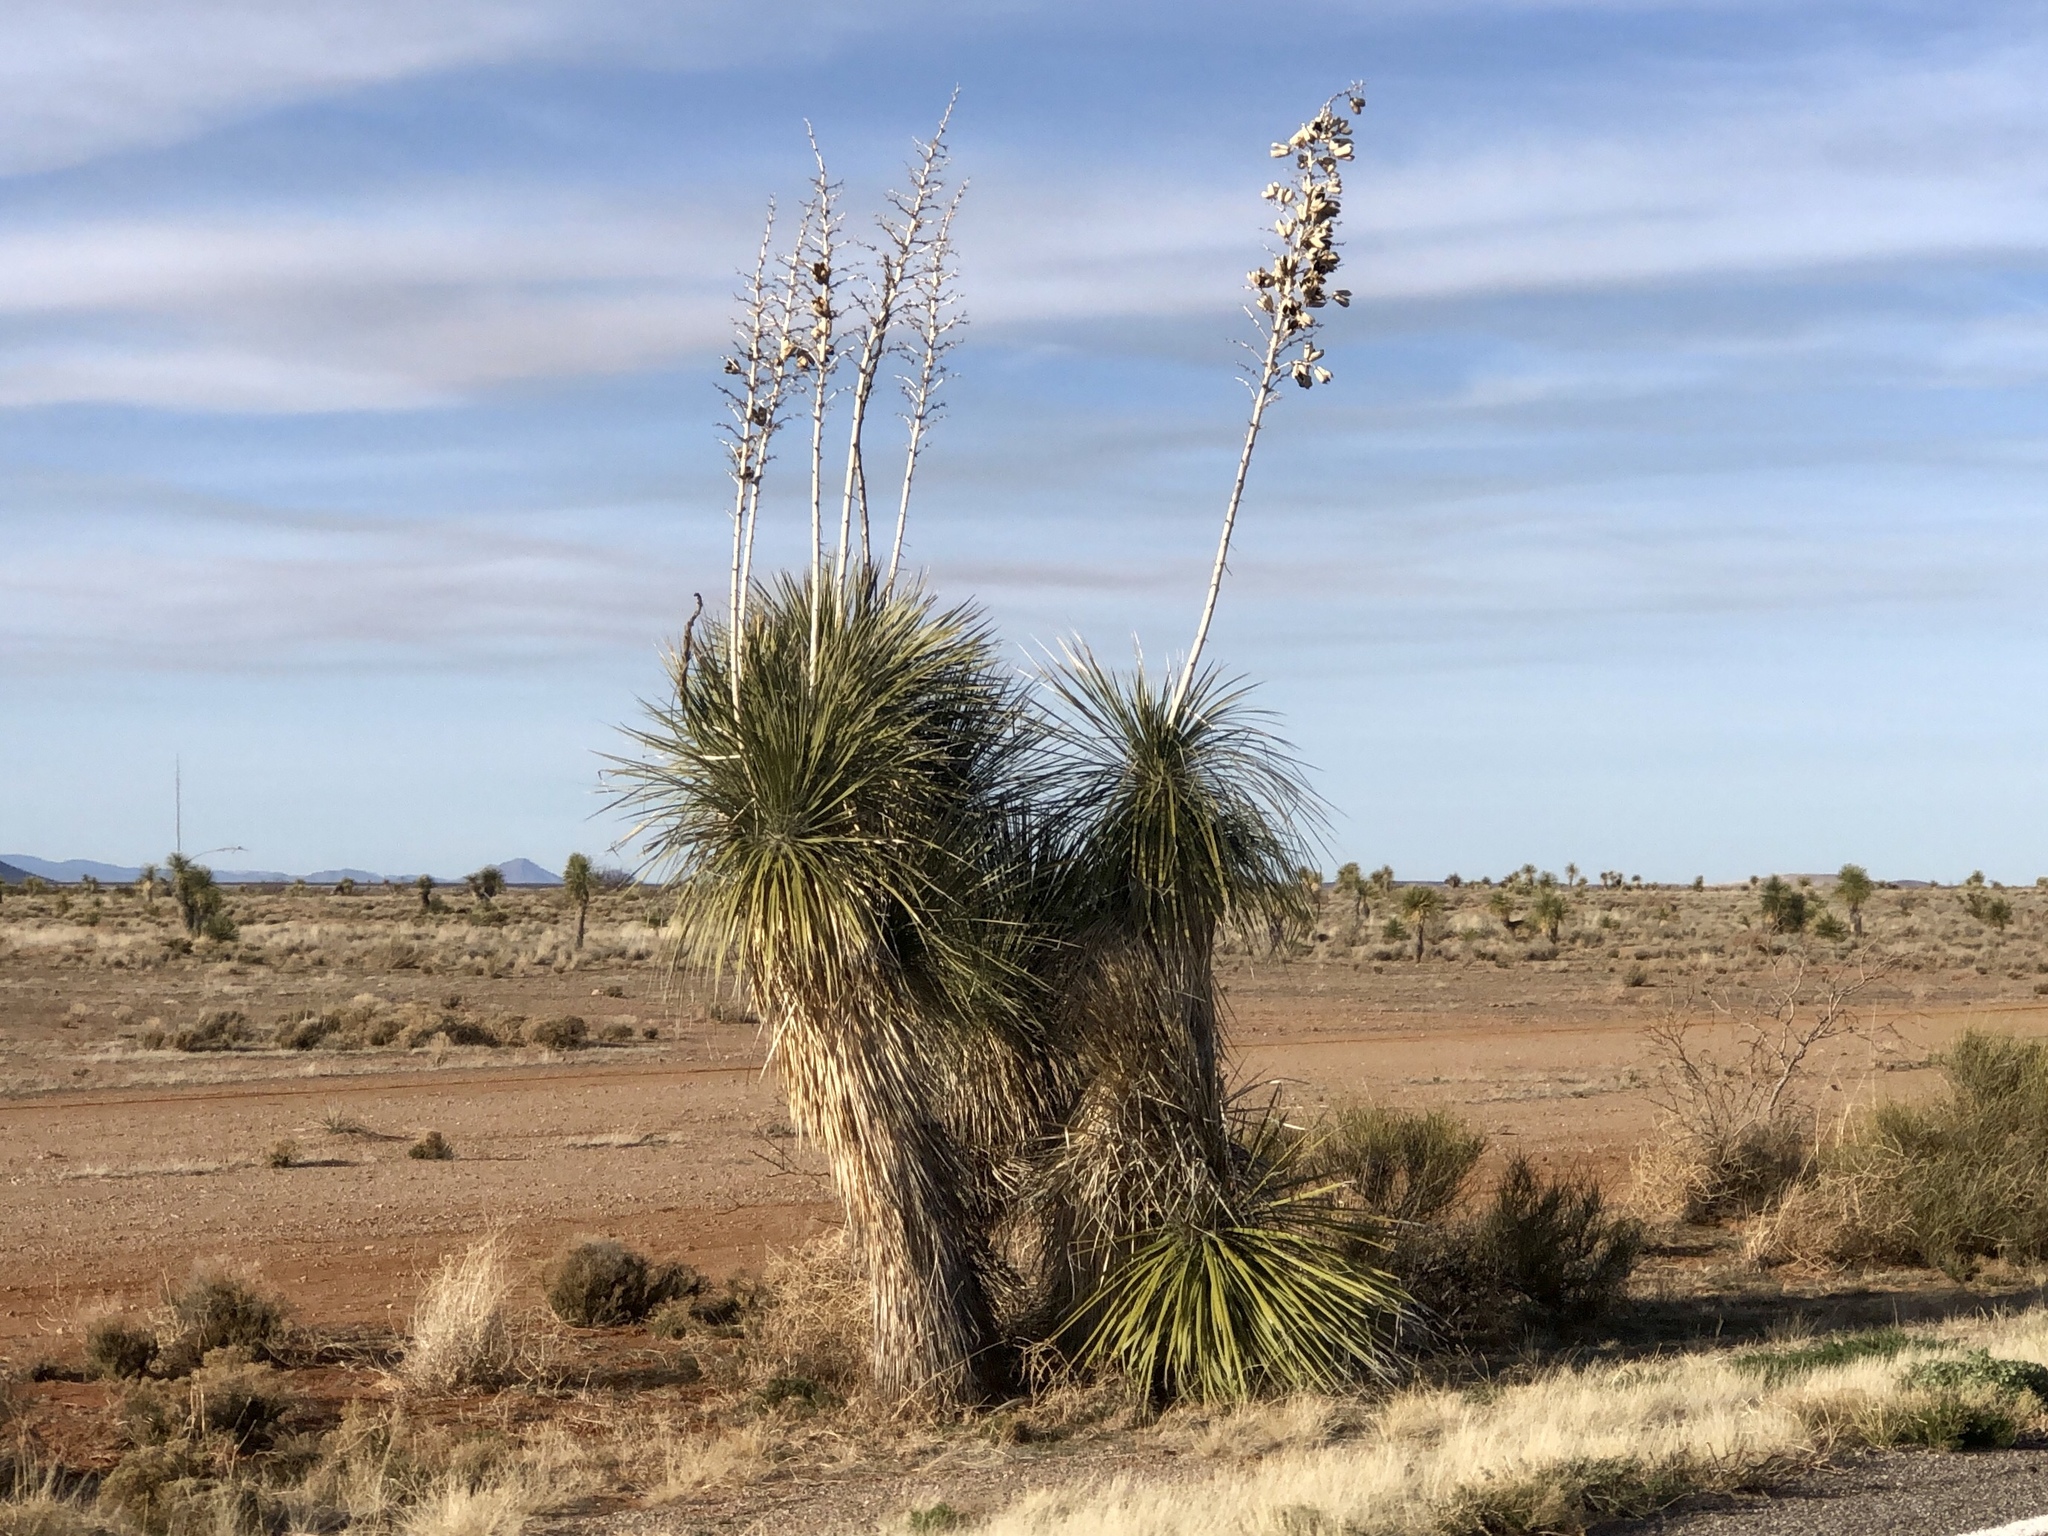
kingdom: Plantae
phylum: Tracheophyta
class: Liliopsida
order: Asparagales
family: Asparagaceae
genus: Yucca
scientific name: Yucca elata
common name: Palmella
